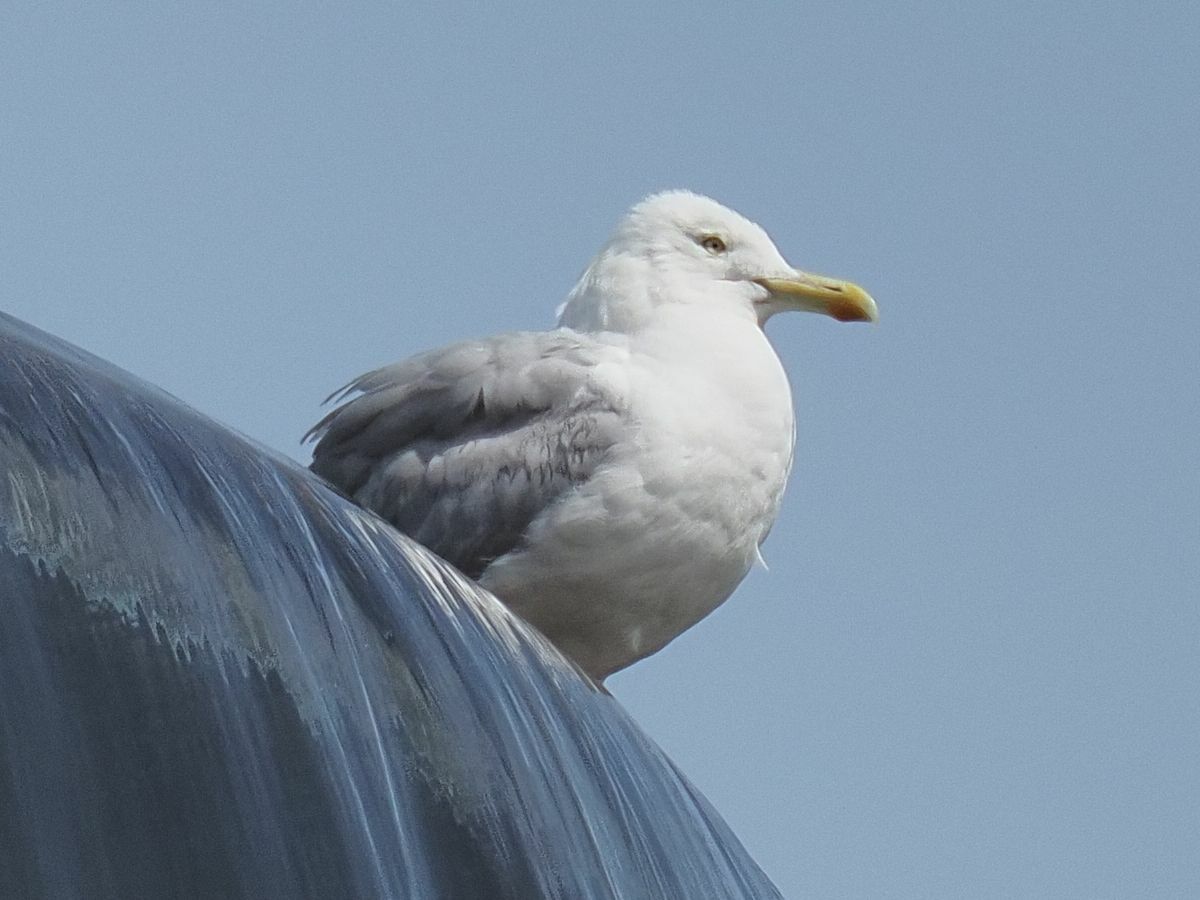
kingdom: Animalia
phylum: Chordata
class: Aves
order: Charadriiformes
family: Laridae
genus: Larus
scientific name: Larus argentatus
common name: Herring gull
